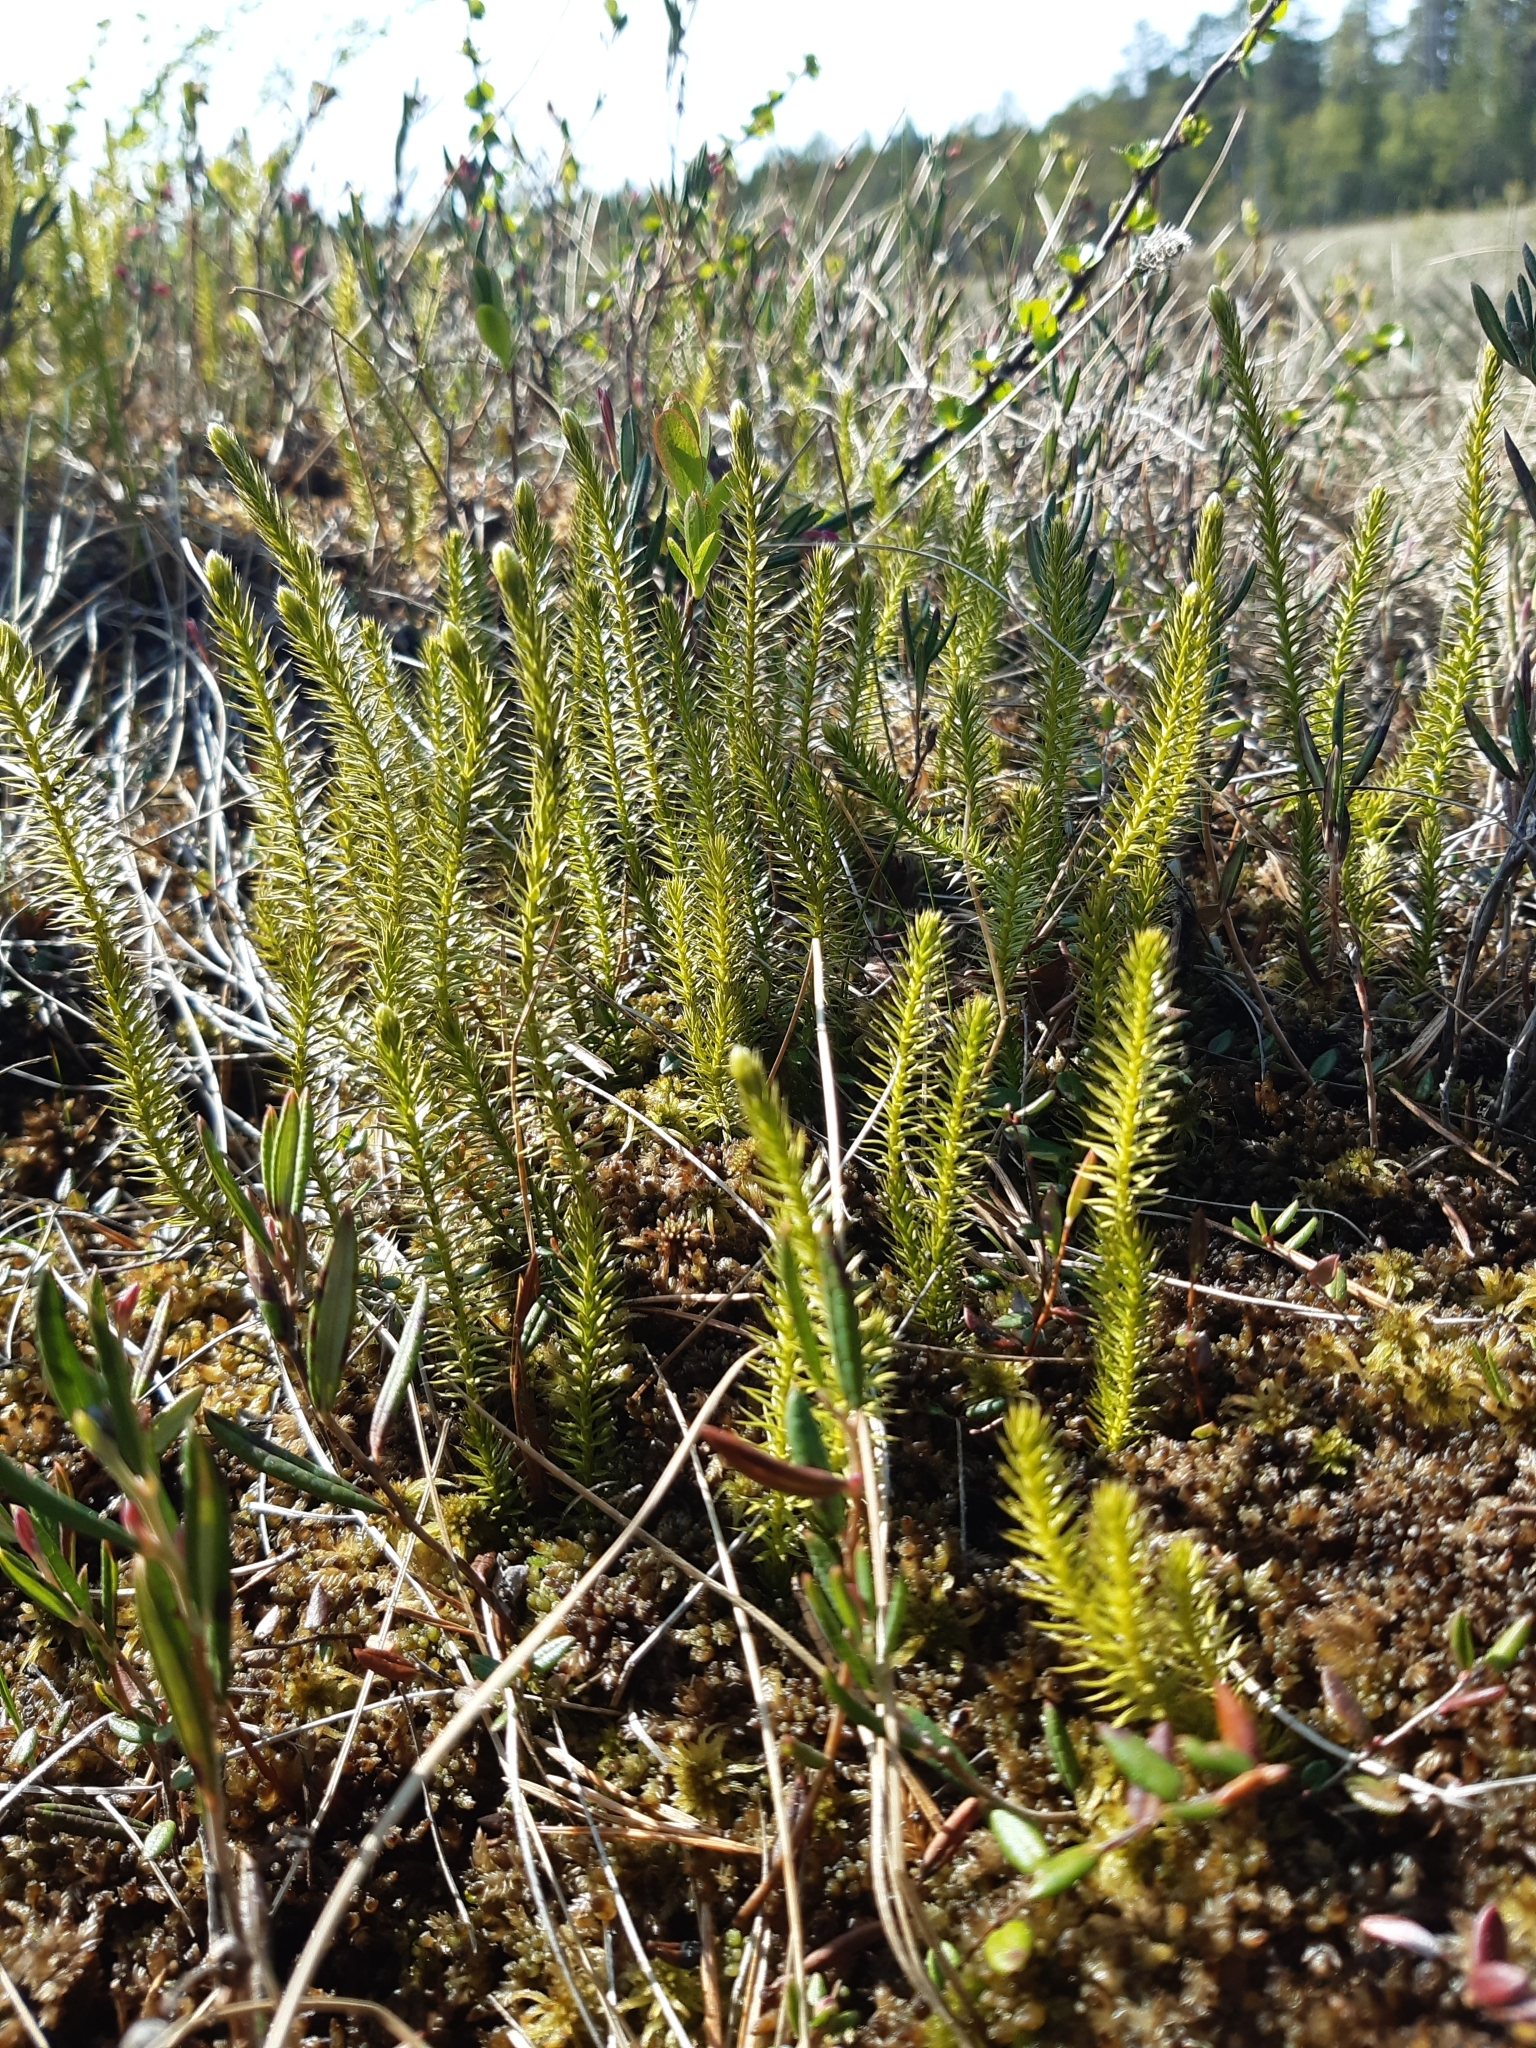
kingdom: Plantae
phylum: Tracheophyta
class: Lycopodiopsida
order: Lycopodiales
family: Lycopodiaceae
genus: Spinulum
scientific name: Spinulum annotinum
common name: Interrupted club-moss
